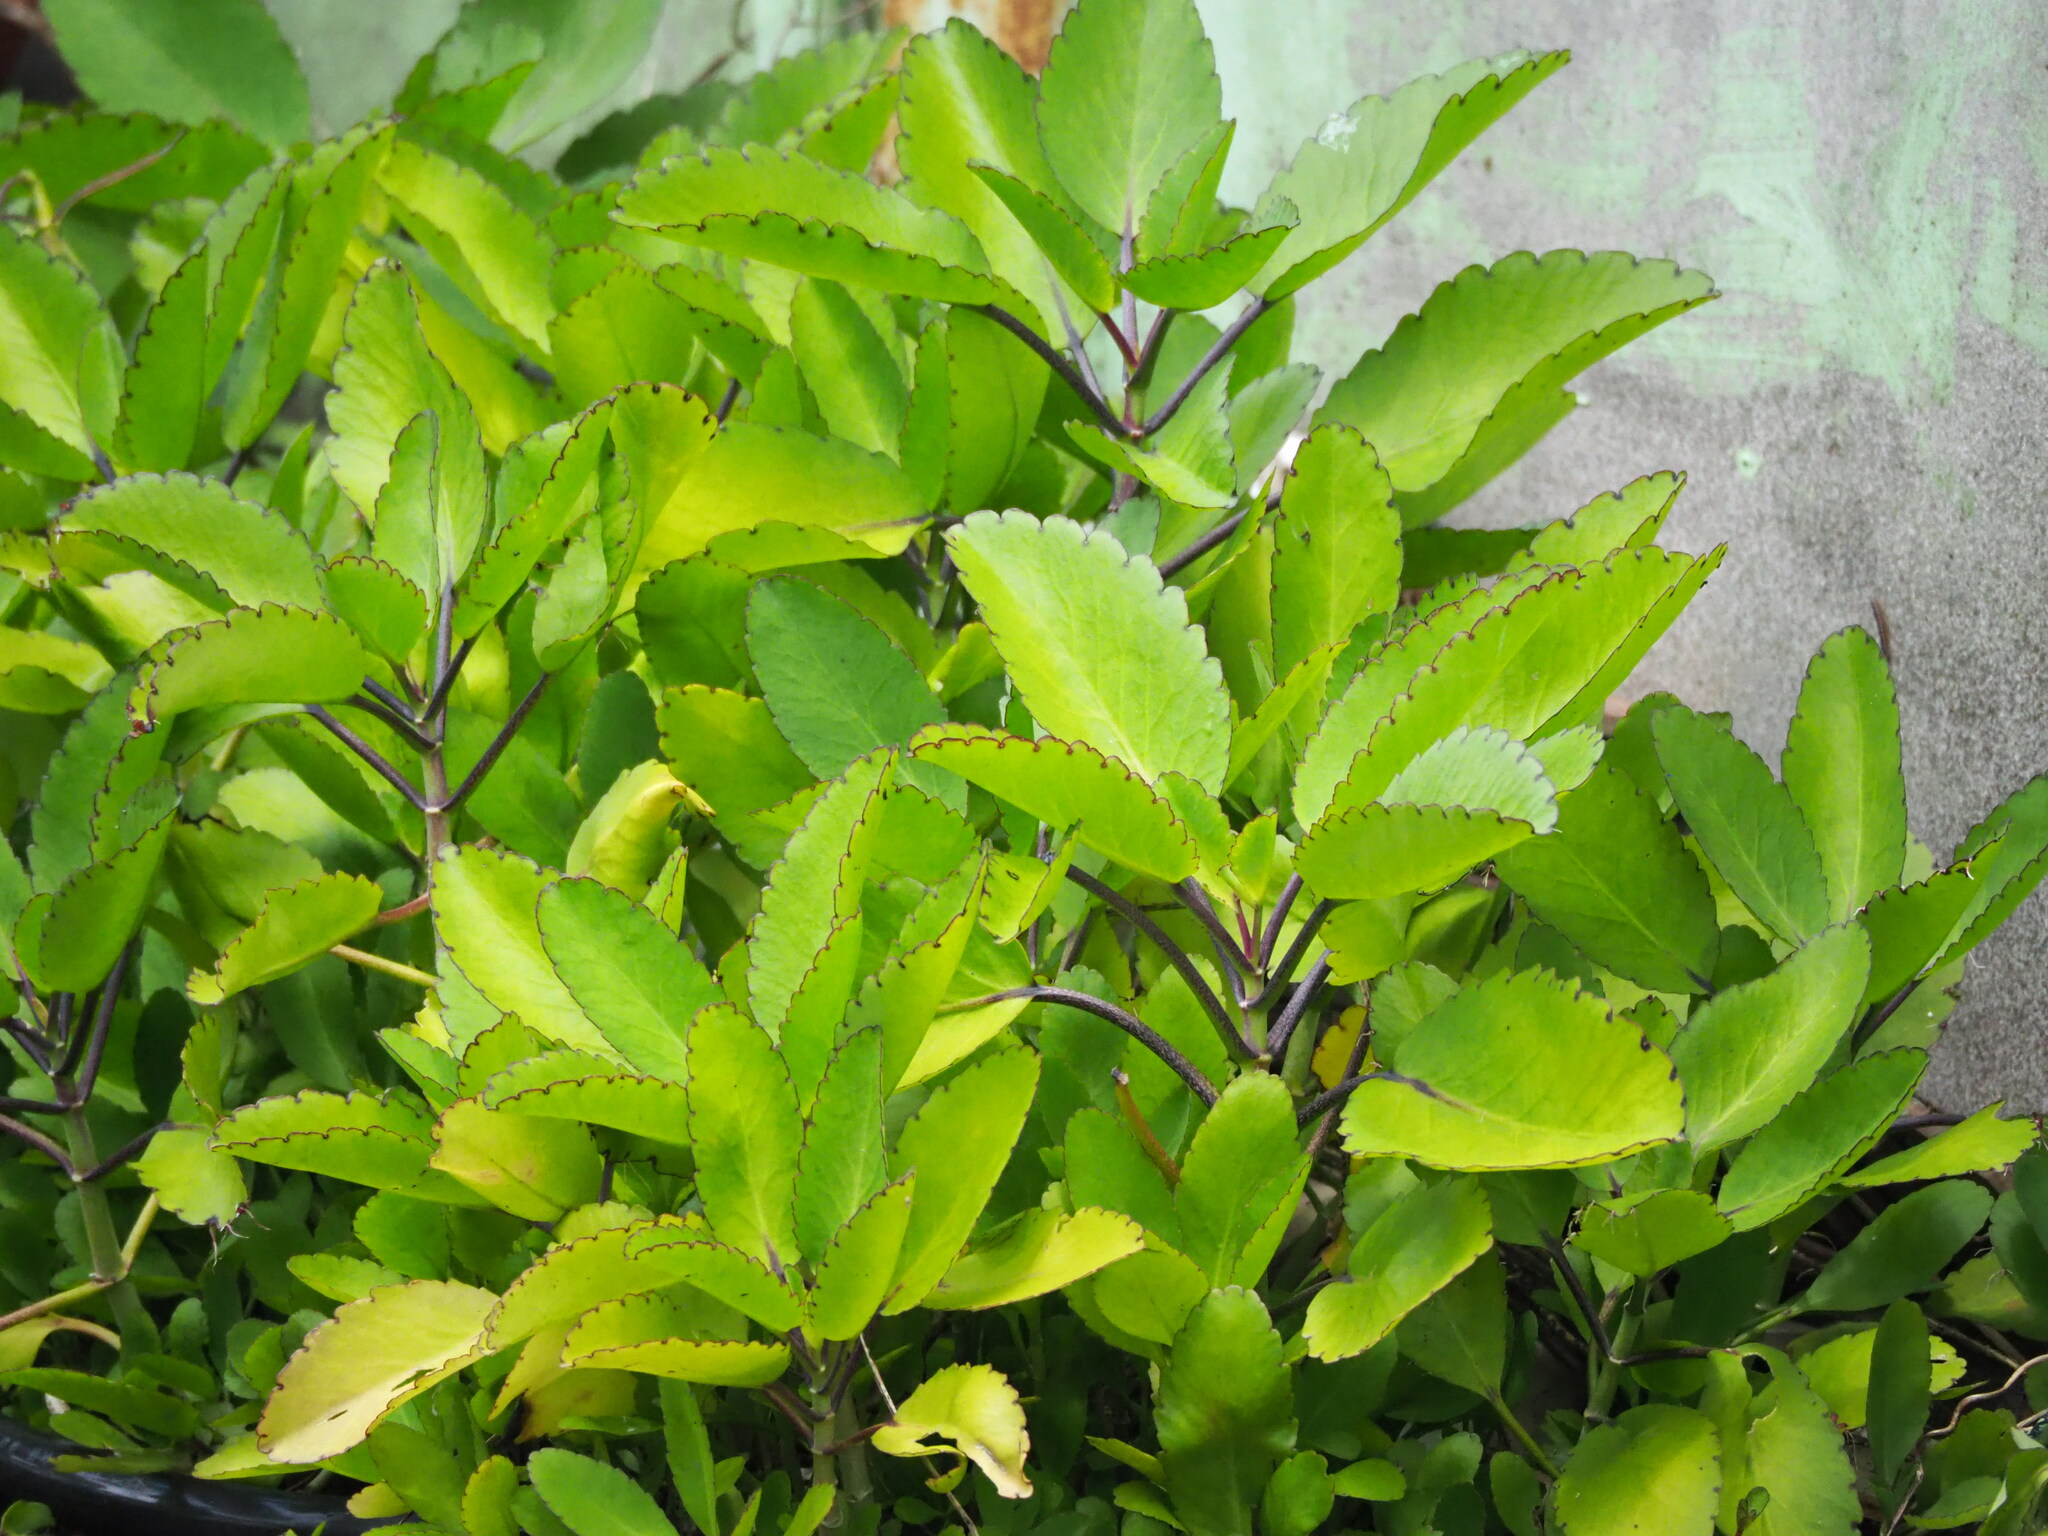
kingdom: Plantae
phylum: Tracheophyta
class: Magnoliopsida
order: Saxifragales
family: Crassulaceae
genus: Kalanchoe
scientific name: Kalanchoe pinnata
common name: Cathedral bells
